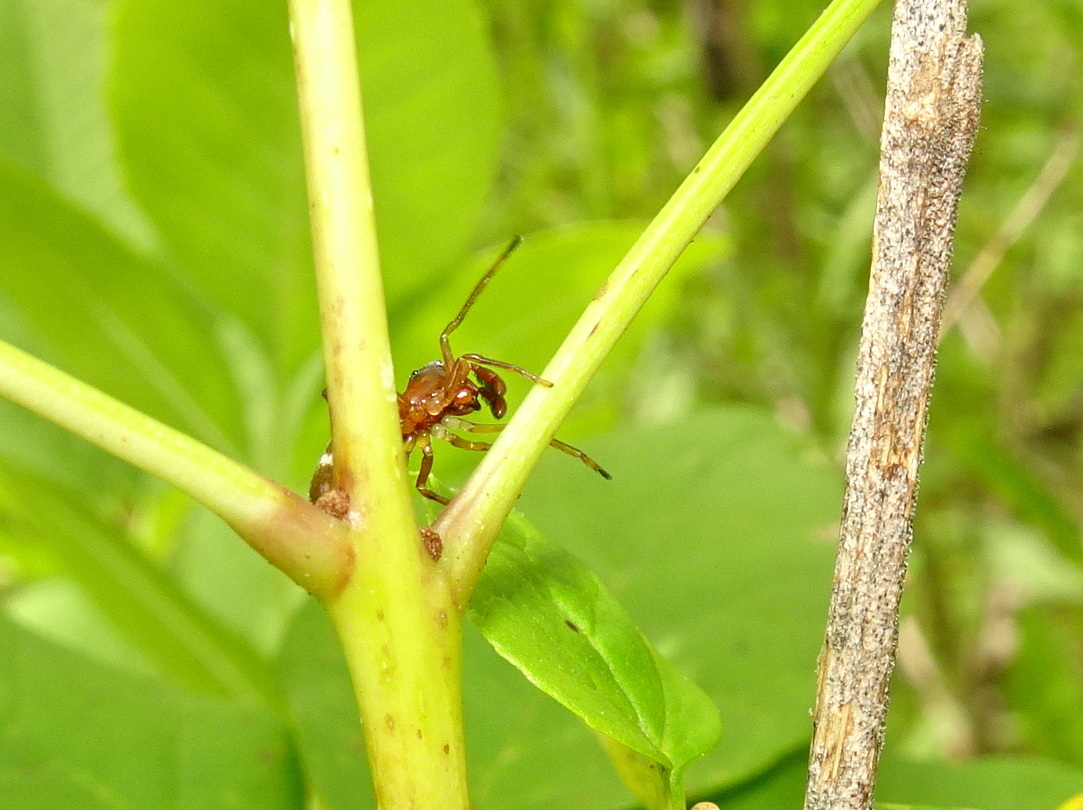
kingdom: Animalia
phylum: Arthropoda
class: Arachnida
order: Araneae
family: Salticidae
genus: Sarinda
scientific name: Sarinda hentzi
